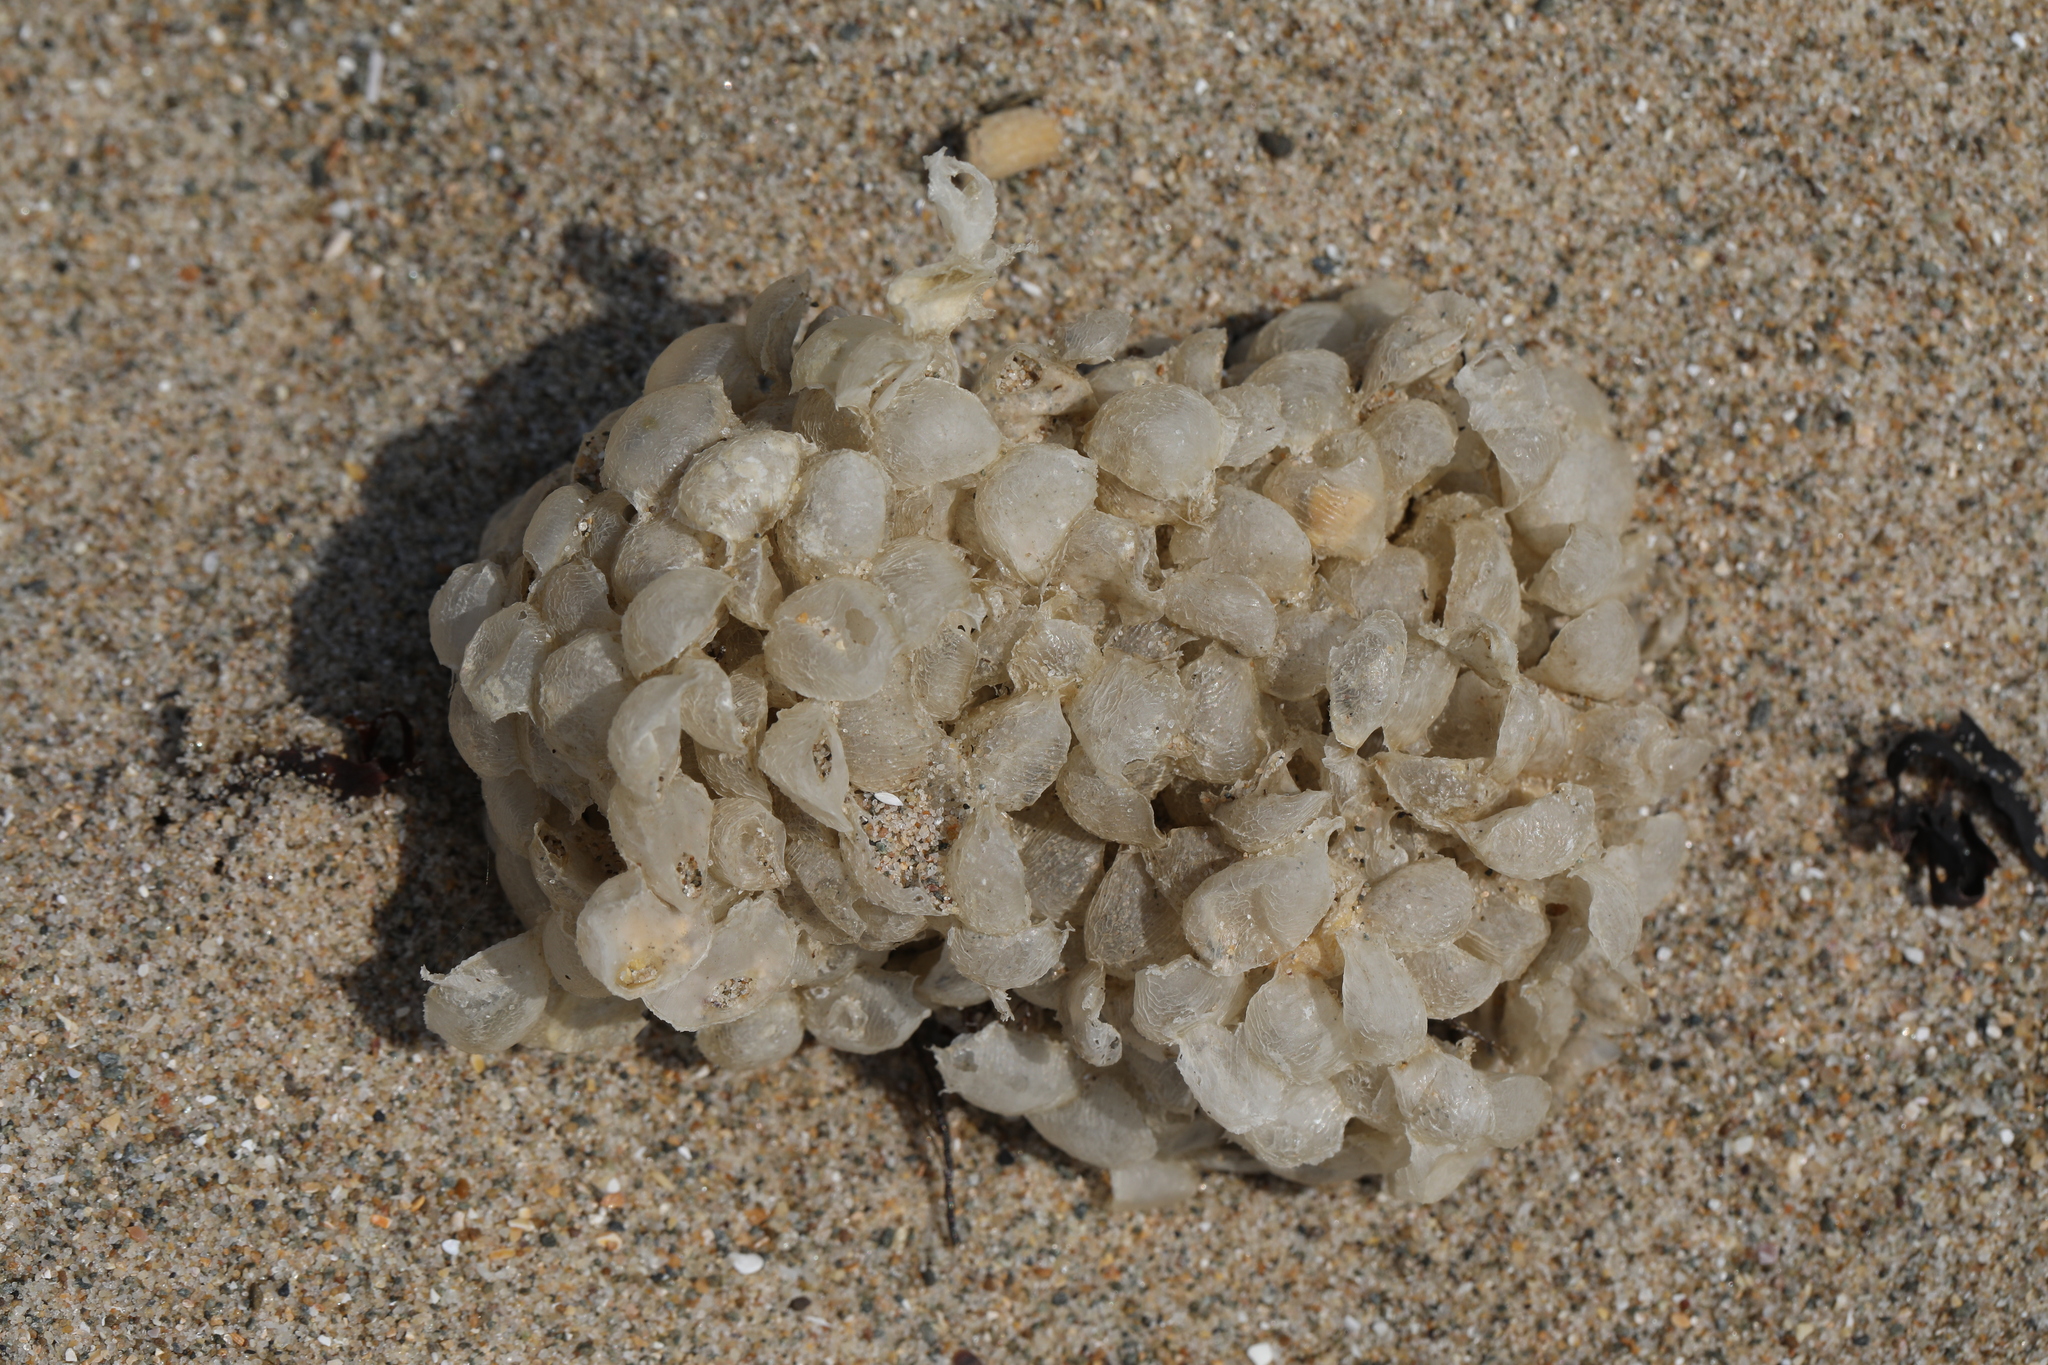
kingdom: Animalia
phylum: Mollusca
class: Gastropoda
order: Neogastropoda
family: Buccinidae
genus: Buccinum
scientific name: Buccinum undatum
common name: Common whelk
